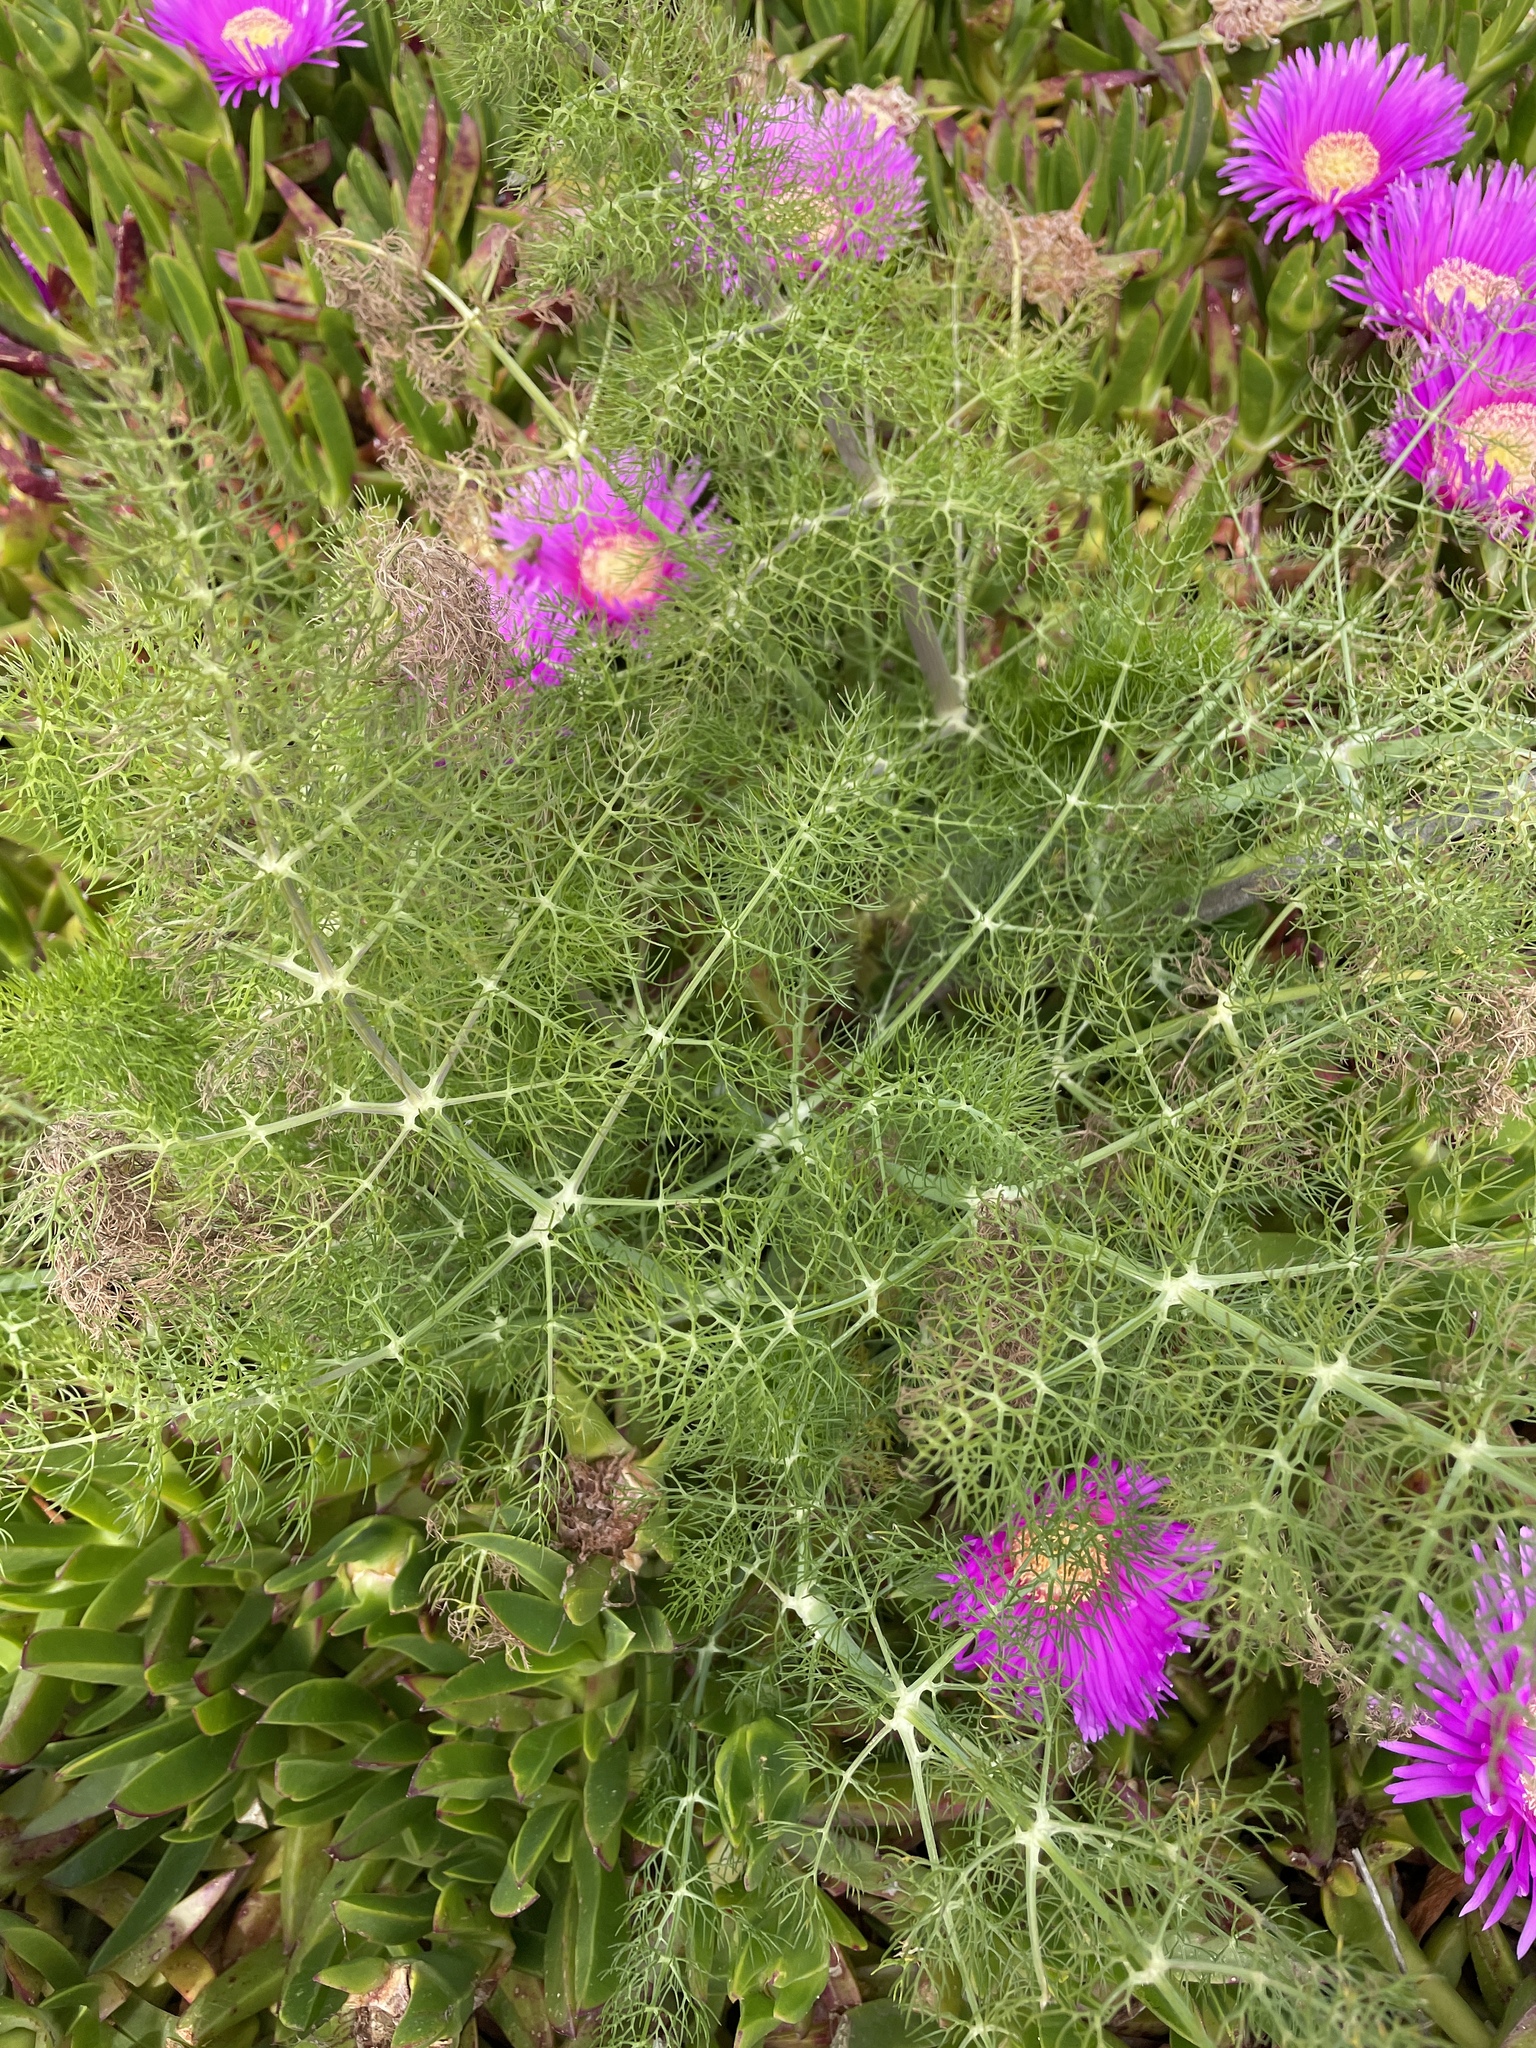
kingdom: Plantae
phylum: Tracheophyta
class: Magnoliopsida
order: Apiales
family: Apiaceae
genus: Foeniculum
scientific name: Foeniculum vulgare
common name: Fennel
